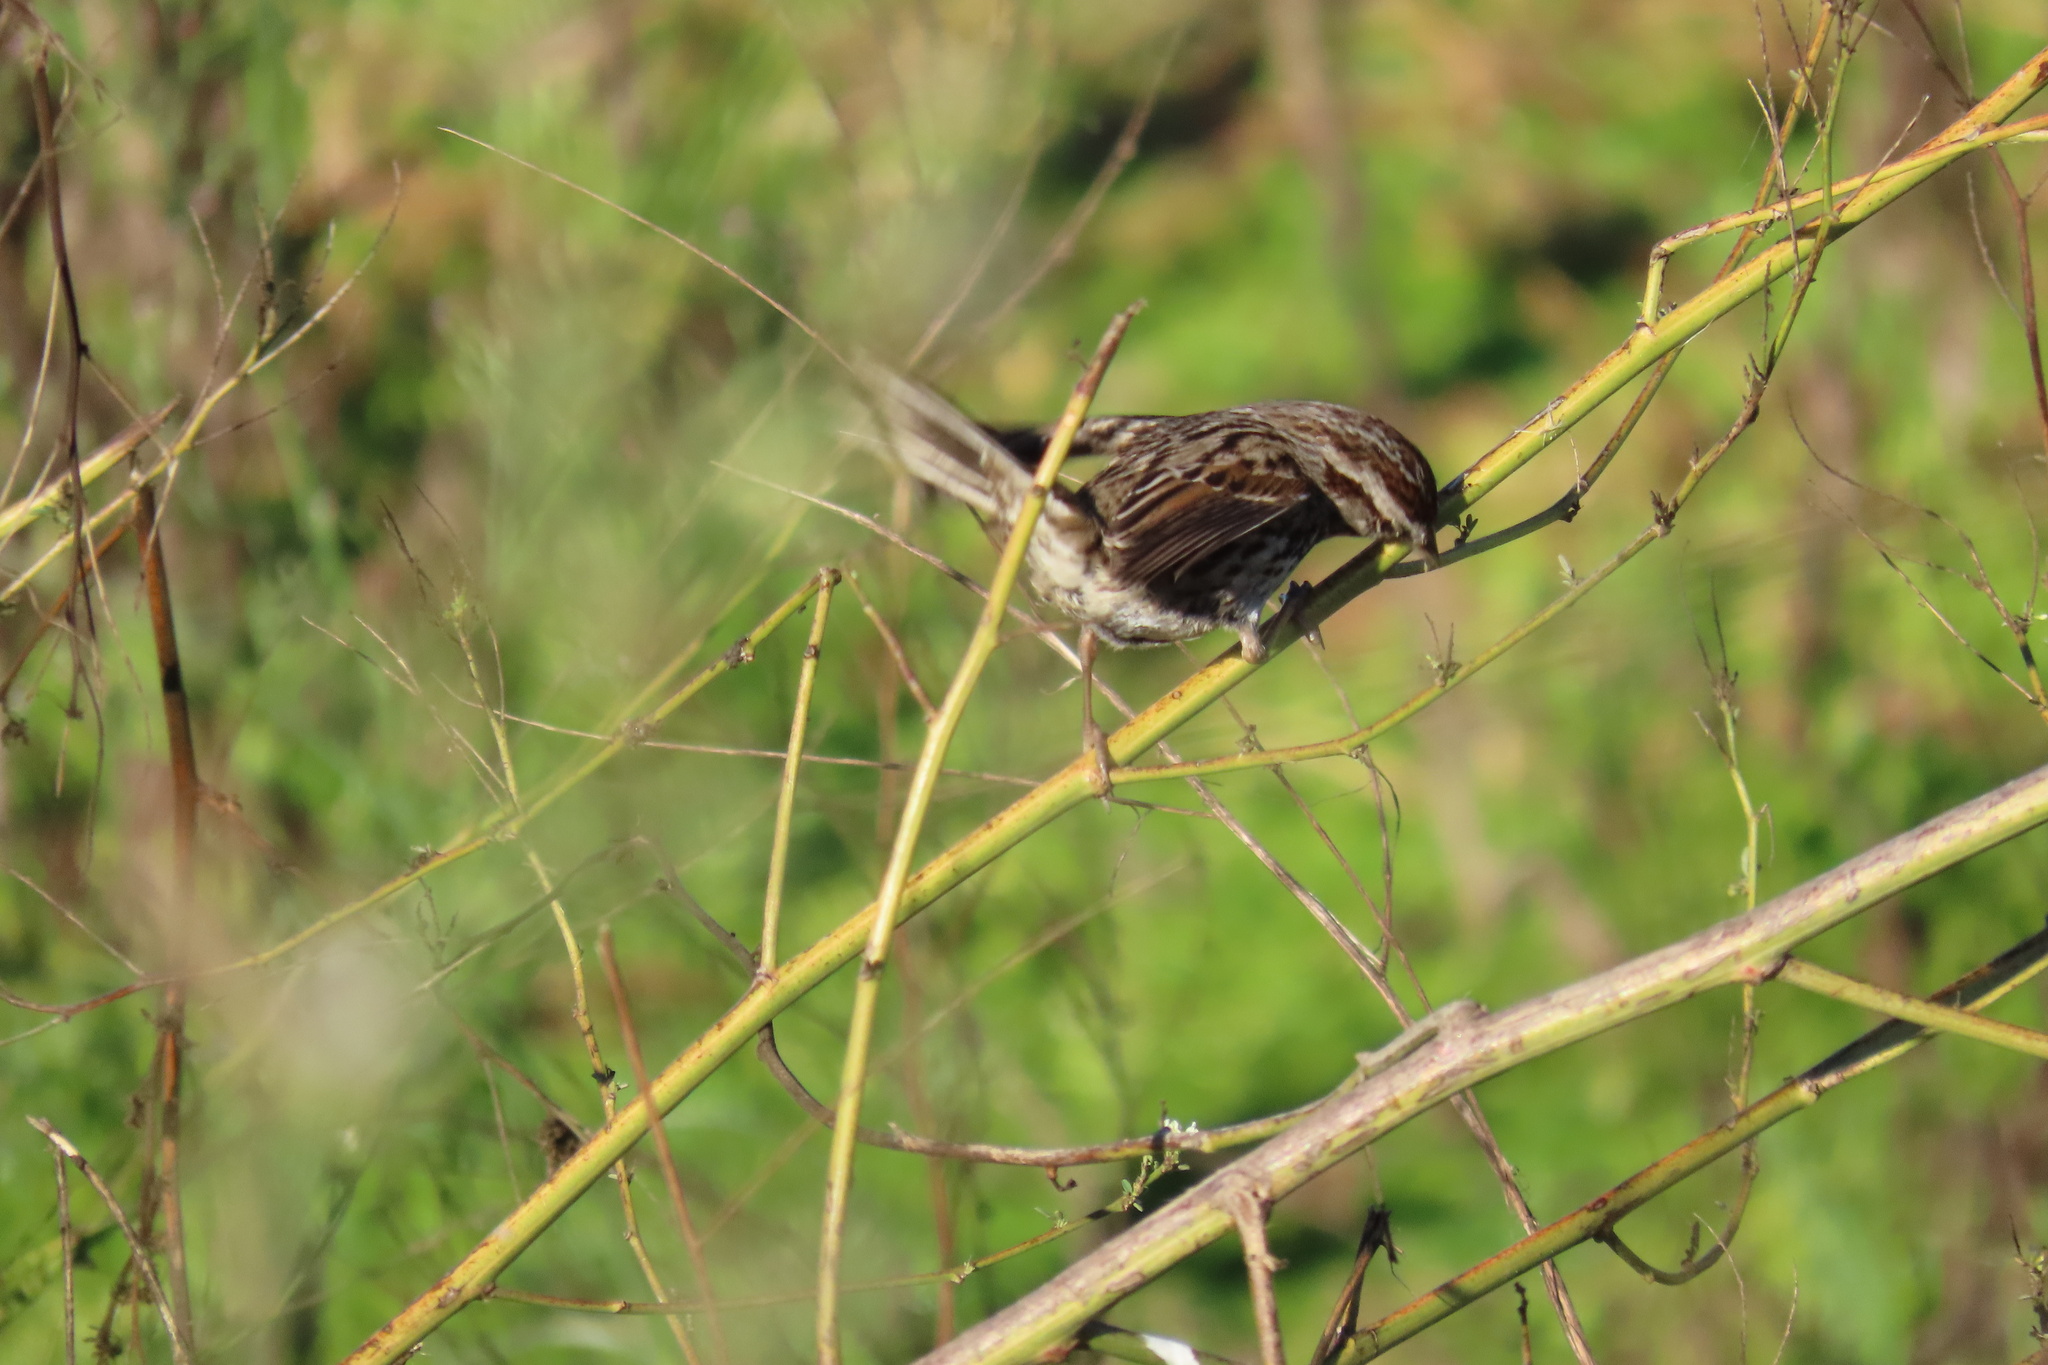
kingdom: Animalia
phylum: Chordata
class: Aves
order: Passeriformes
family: Passerellidae
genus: Melospiza
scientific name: Melospiza melodia
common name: Song sparrow
